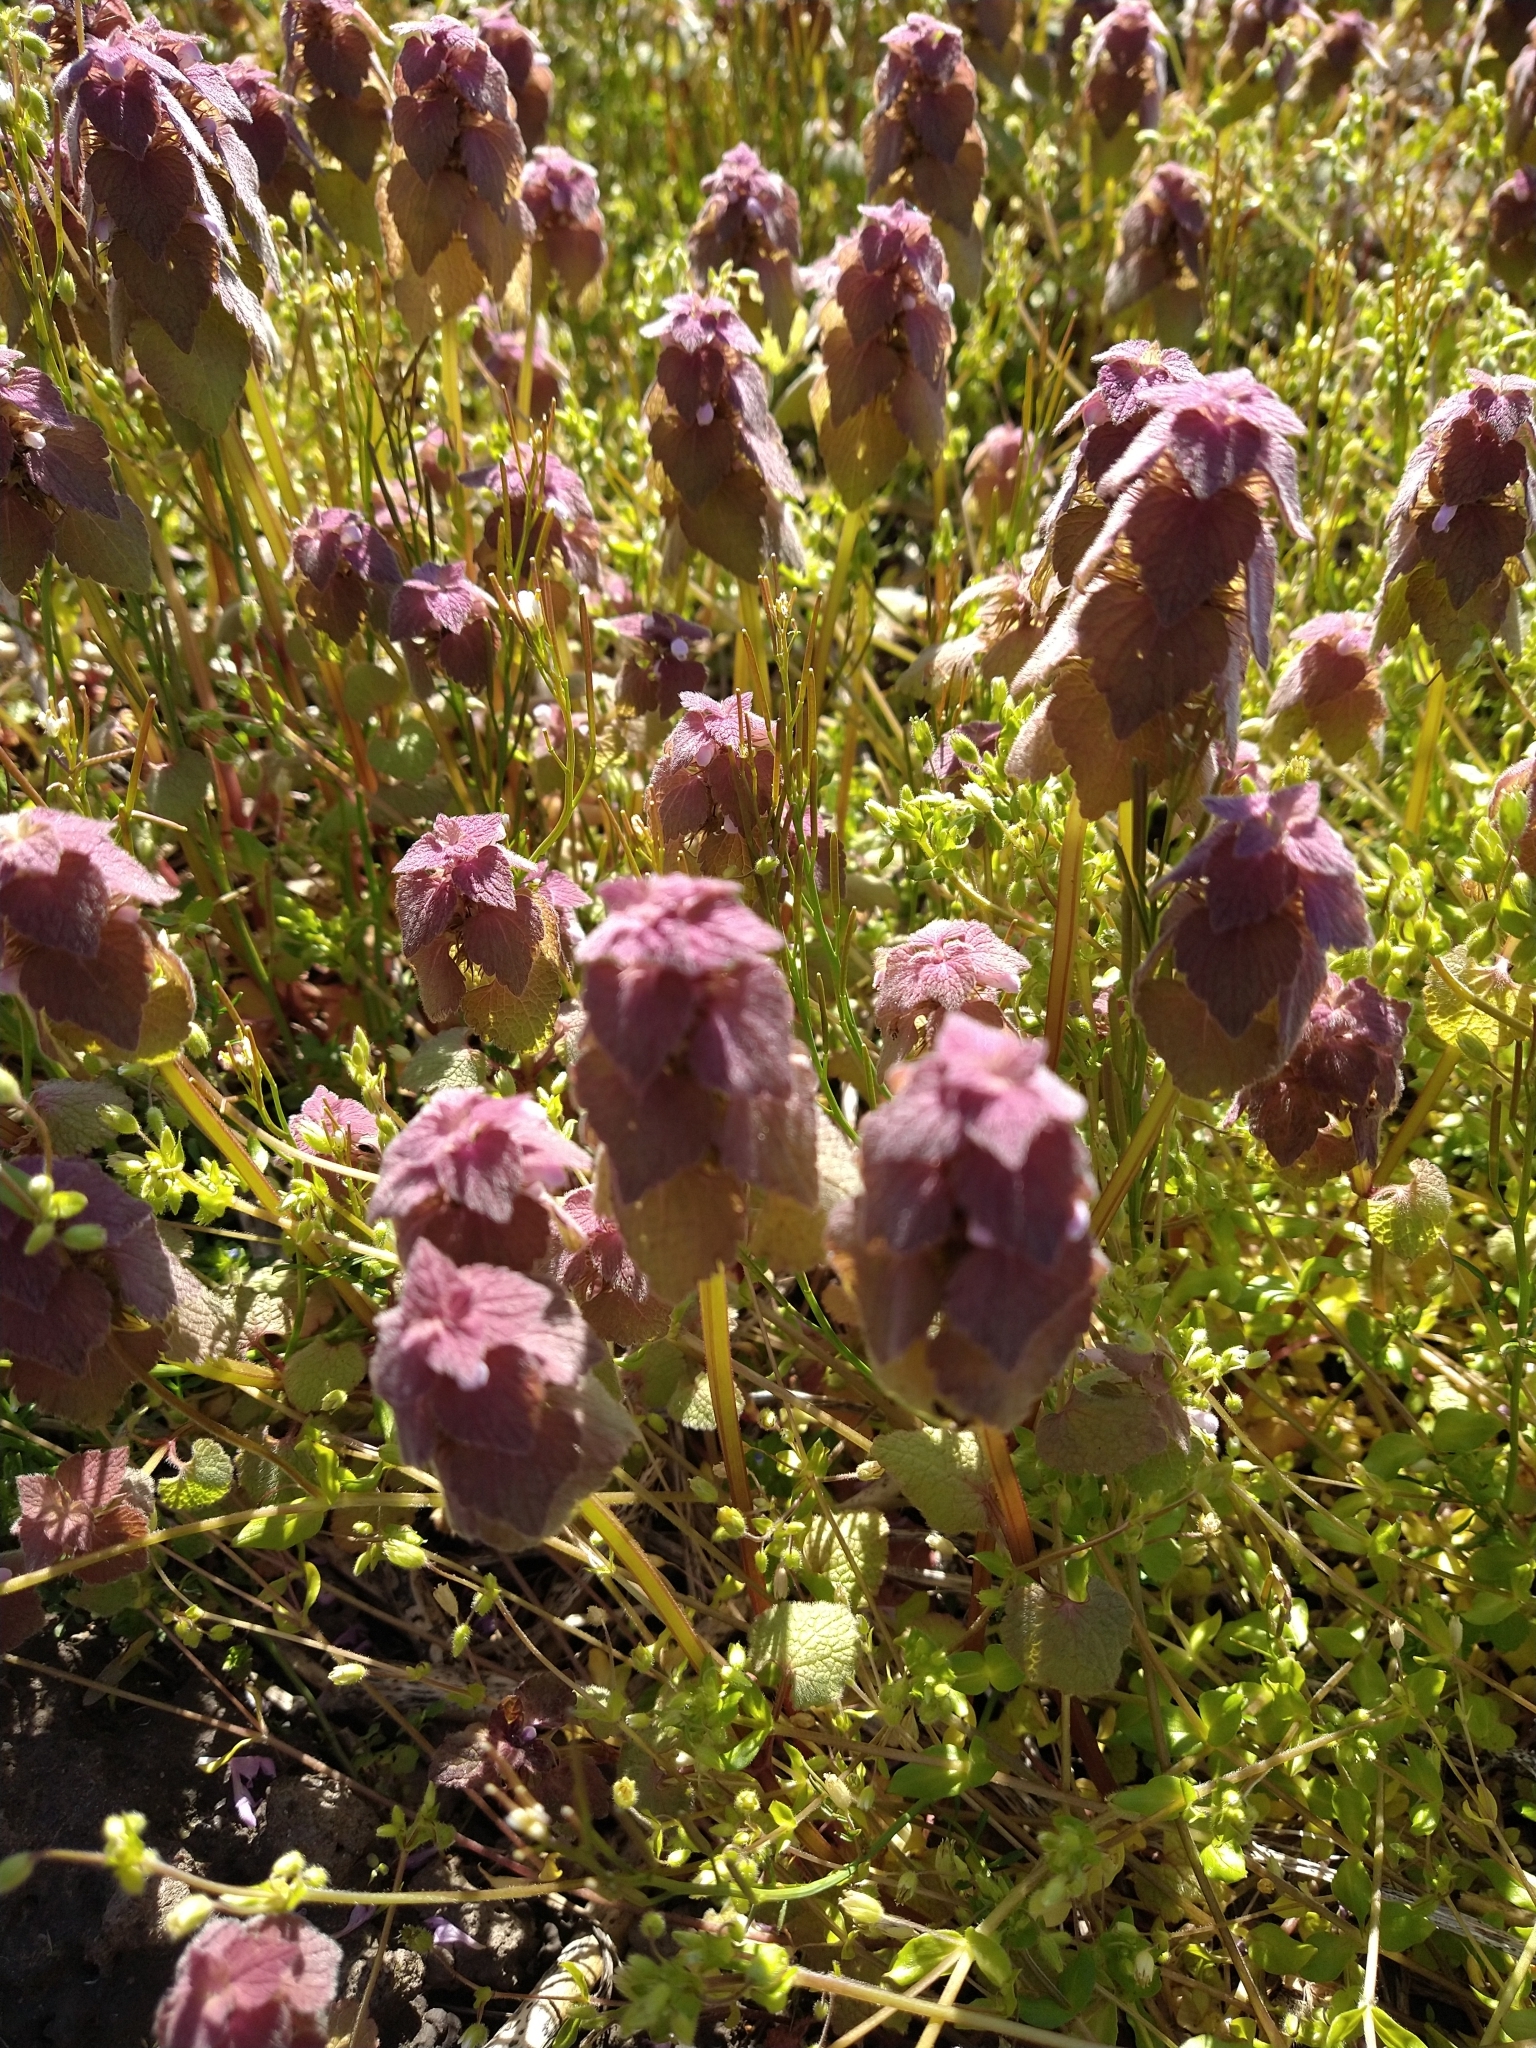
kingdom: Plantae
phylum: Tracheophyta
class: Magnoliopsida
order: Lamiales
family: Lamiaceae
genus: Lamium
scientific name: Lamium purpureum
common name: Red dead-nettle
